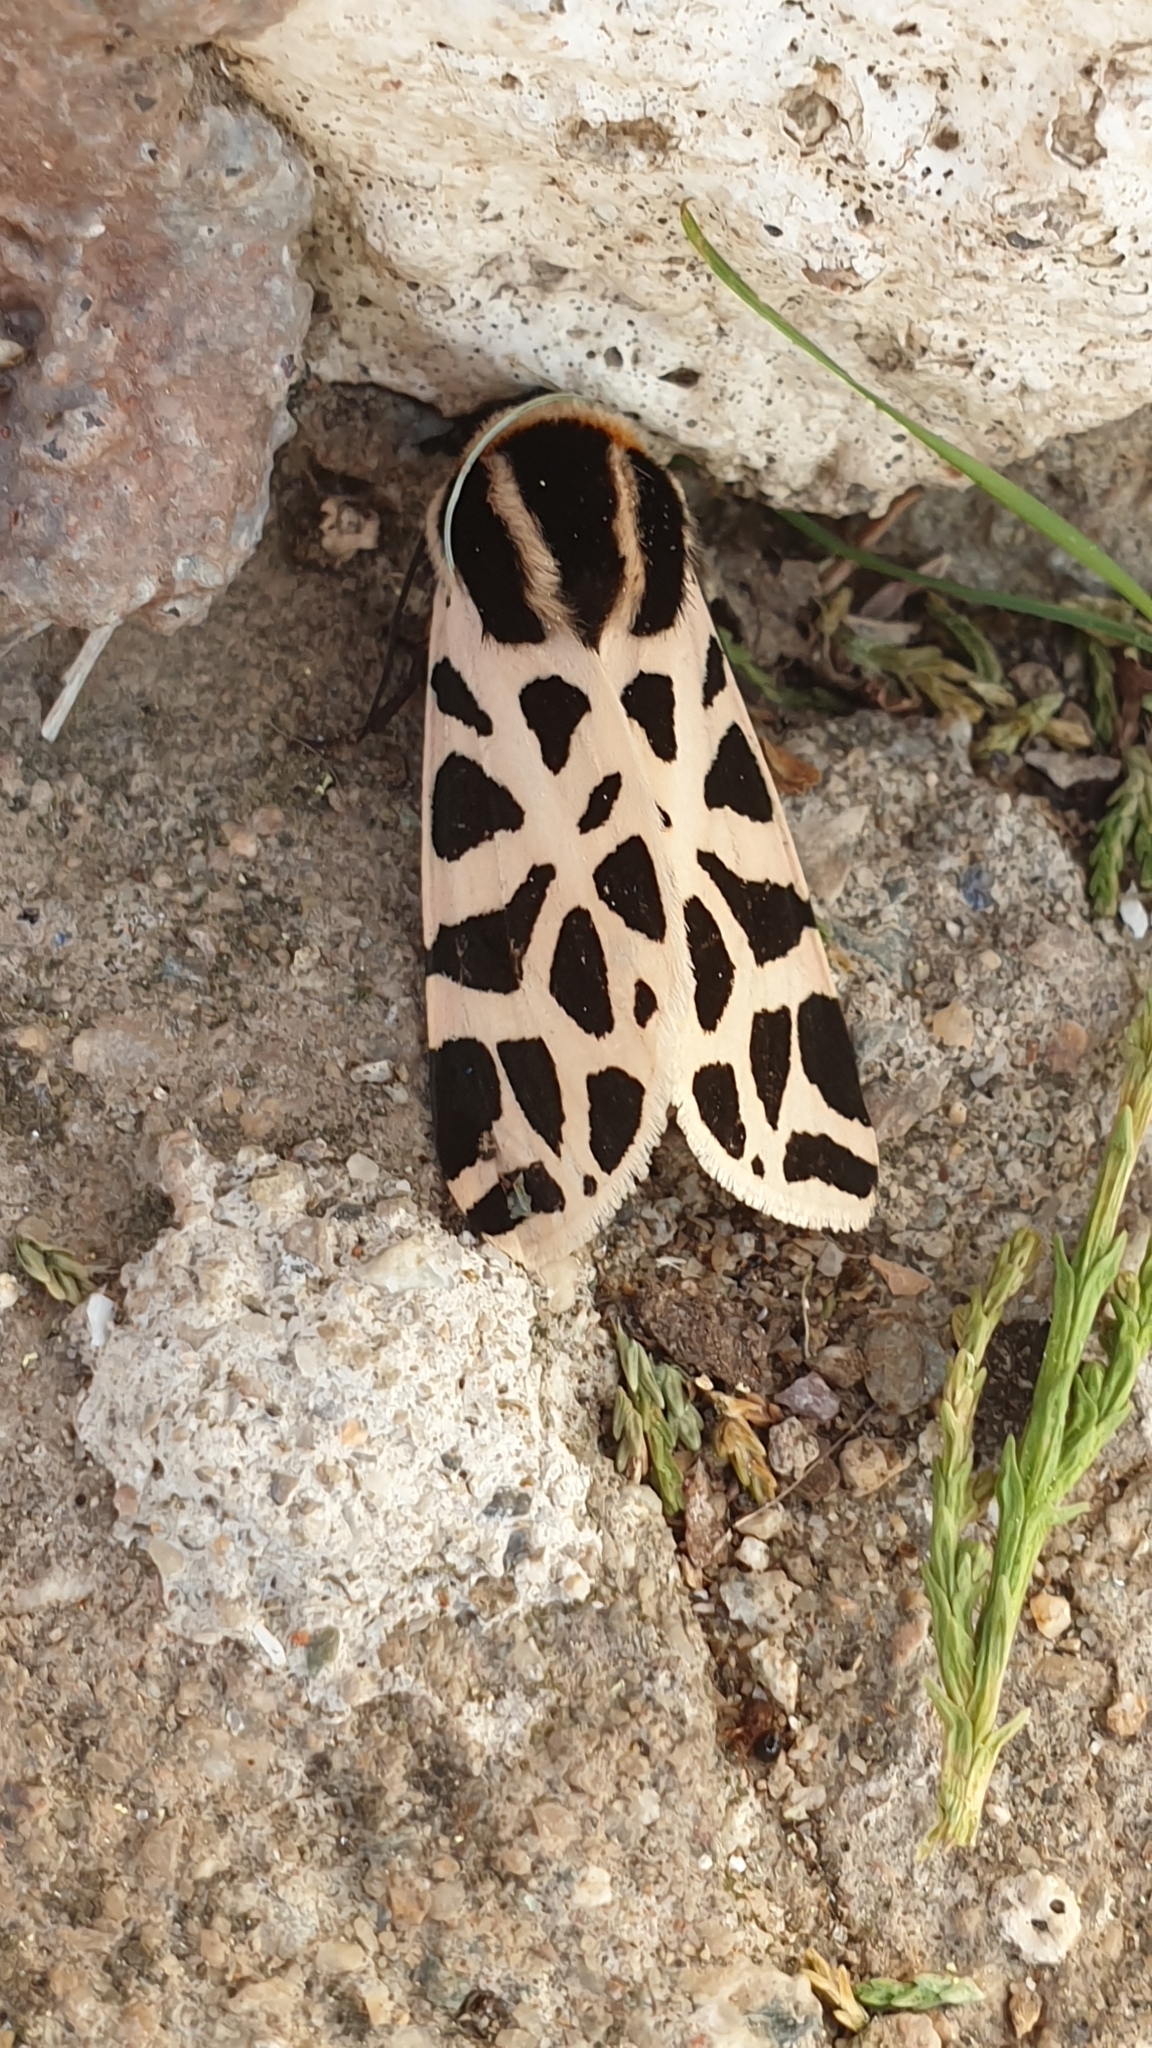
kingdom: Animalia
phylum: Arthropoda
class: Insecta
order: Lepidoptera
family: Erebidae
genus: Cymbalophora
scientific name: Cymbalophora pudica
